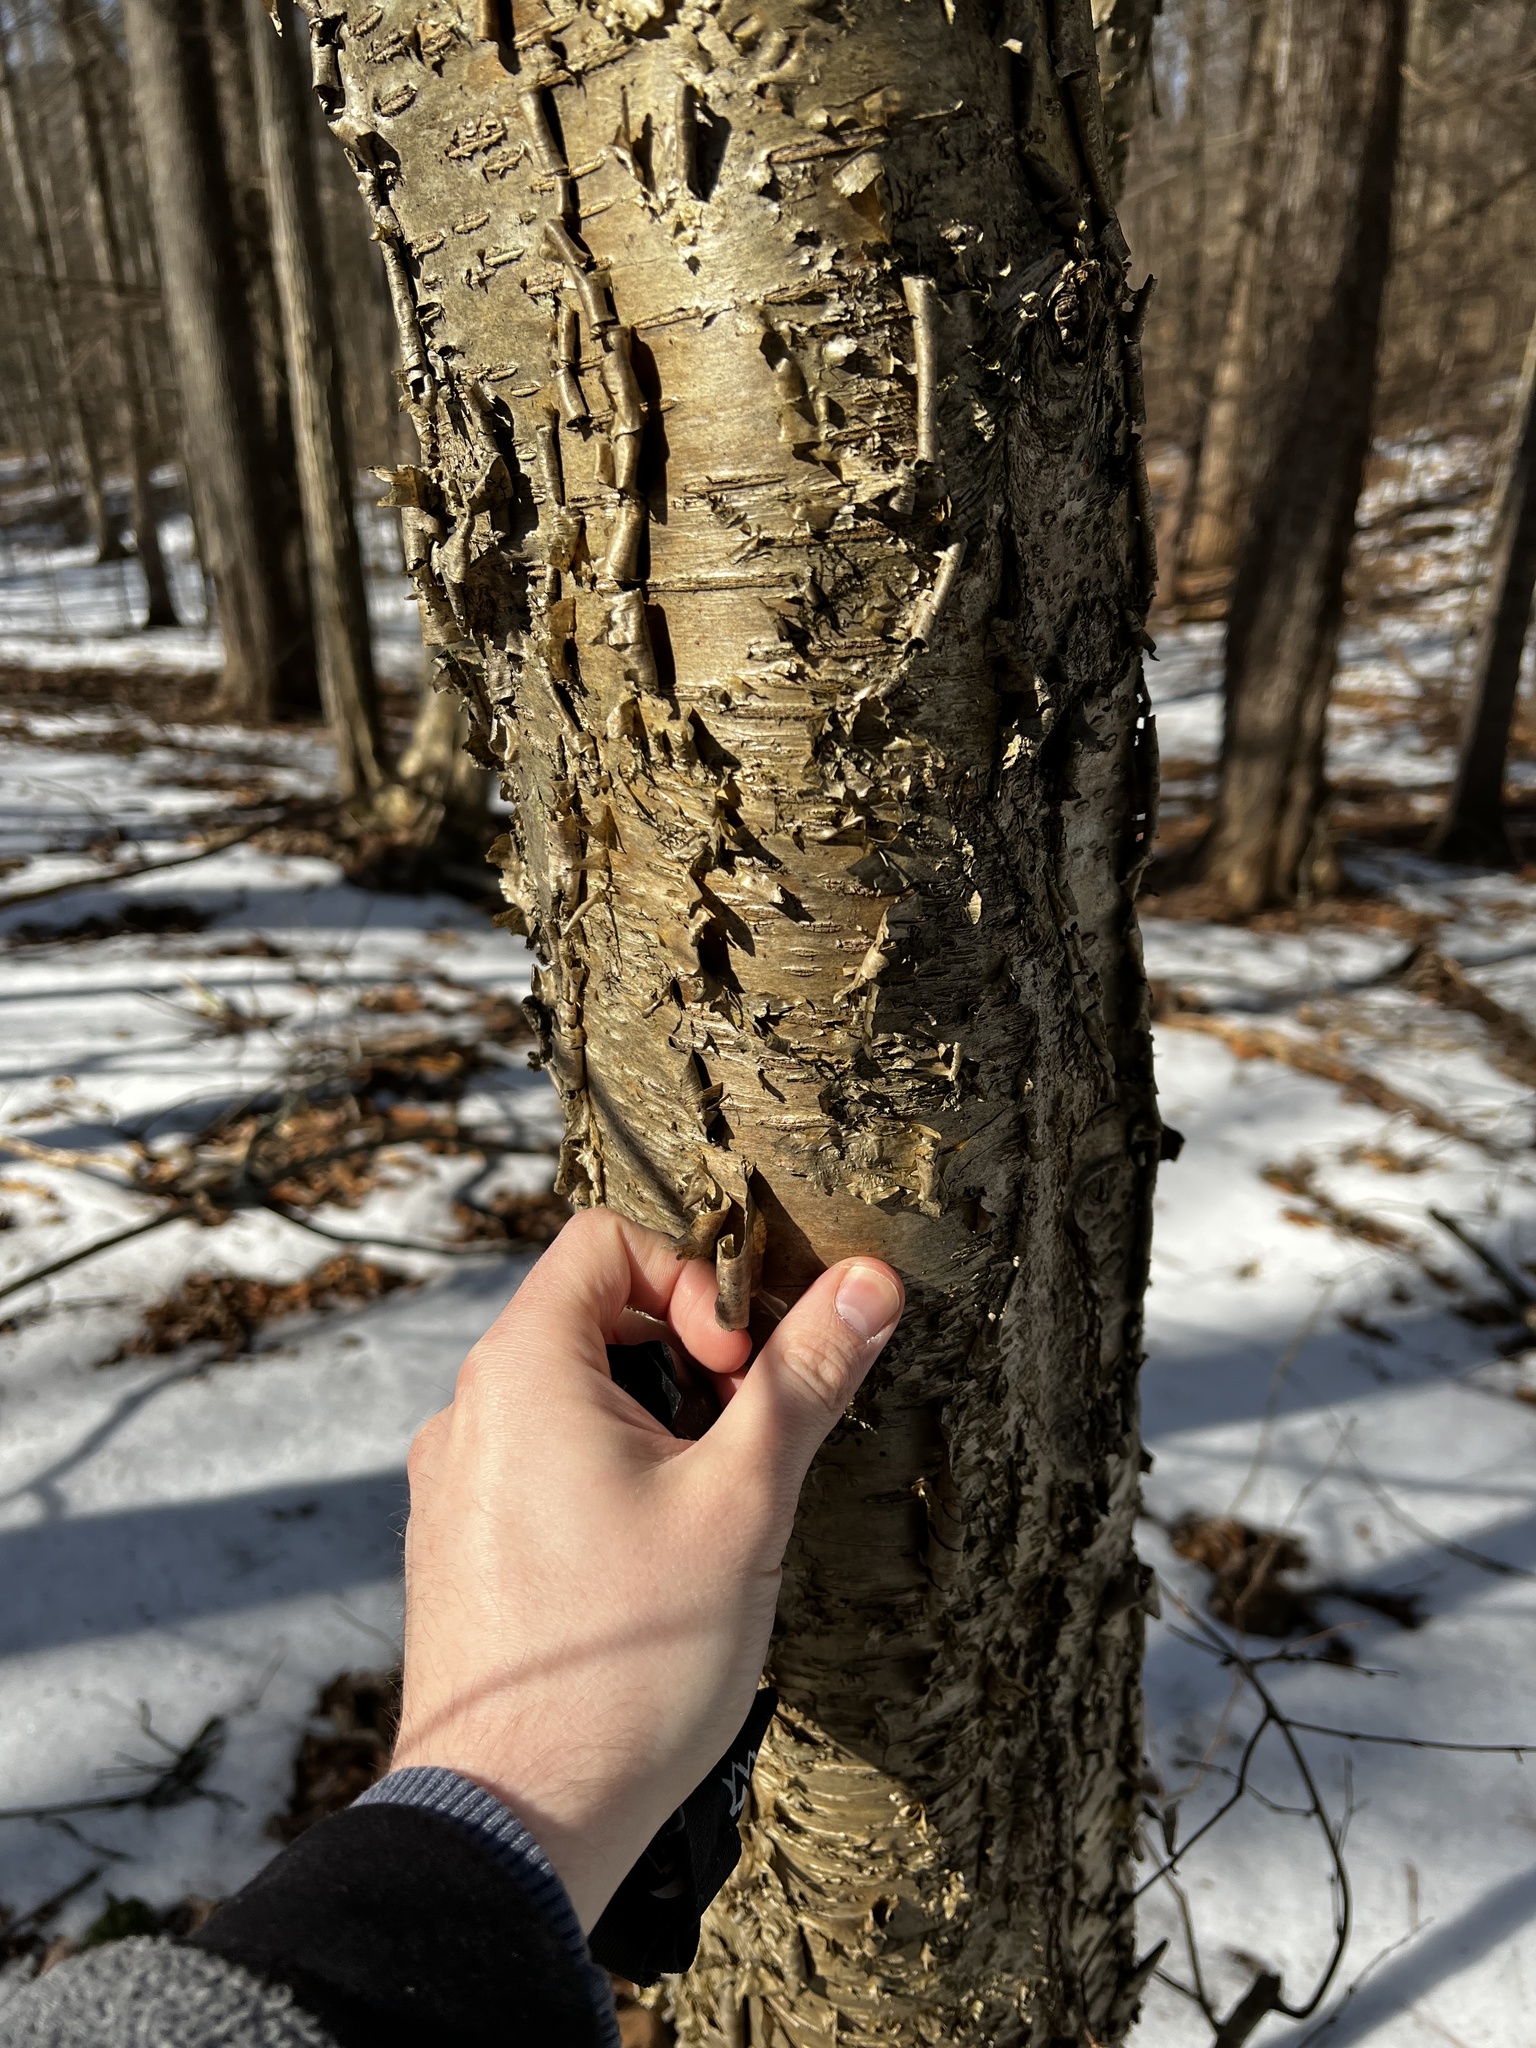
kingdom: Plantae
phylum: Tracheophyta
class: Magnoliopsida
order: Fagales
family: Betulaceae
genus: Betula
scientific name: Betula alleghaniensis
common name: Yellow birch
